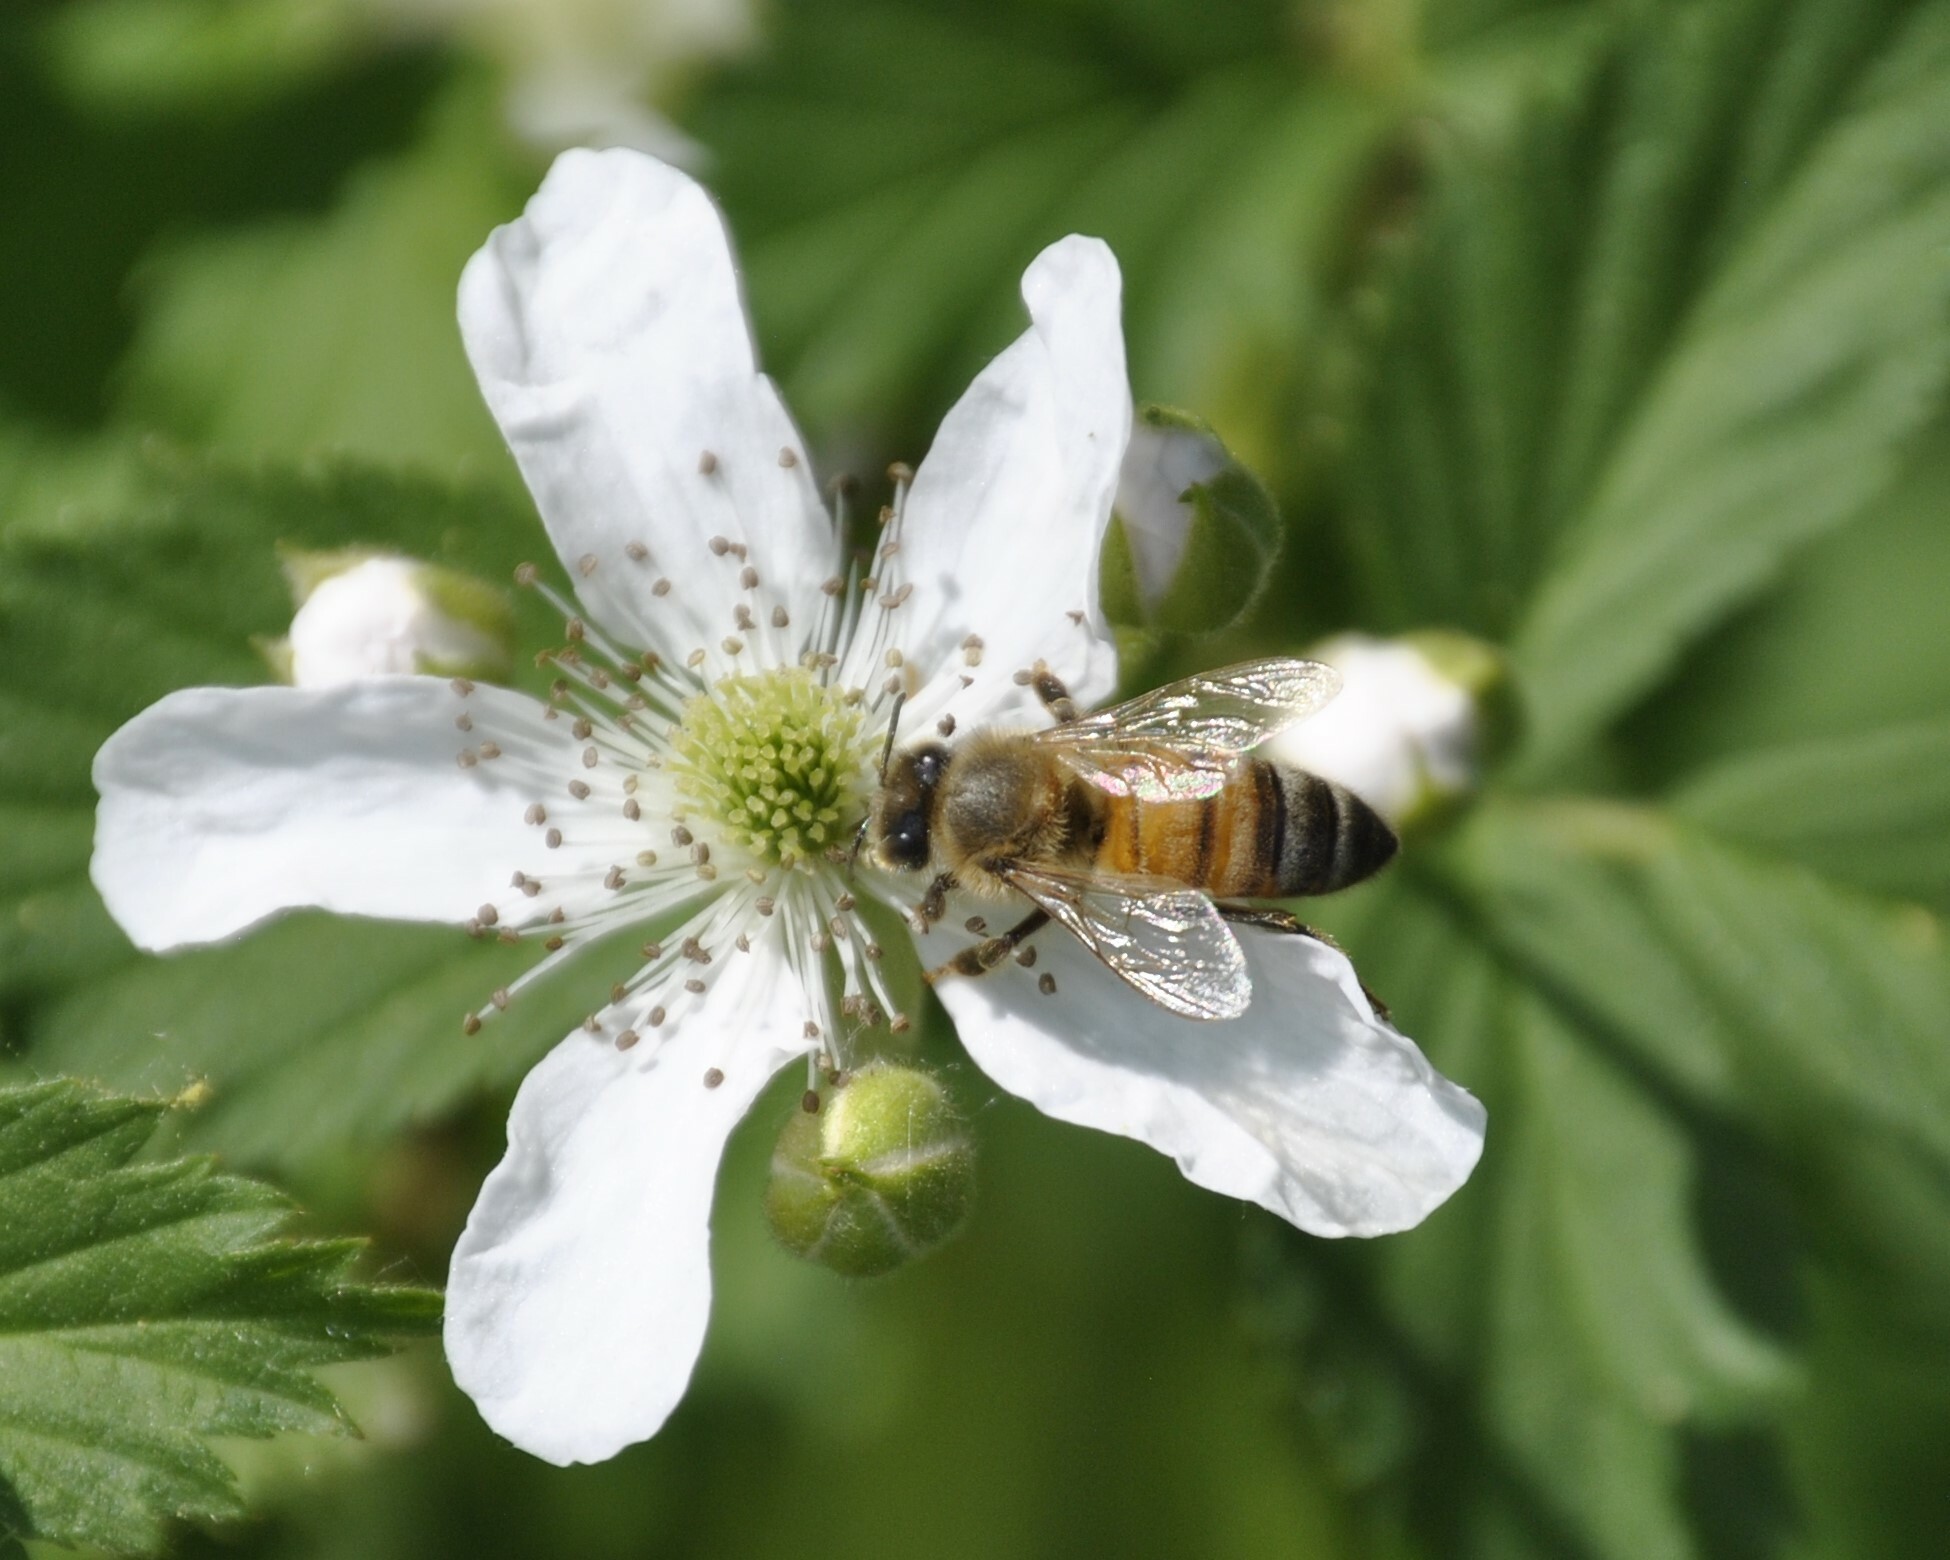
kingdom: Animalia
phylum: Arthropoda
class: Insecta
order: Hymenoptera
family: Apidae
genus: Apis
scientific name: Apis mellifera
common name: Honey bee
